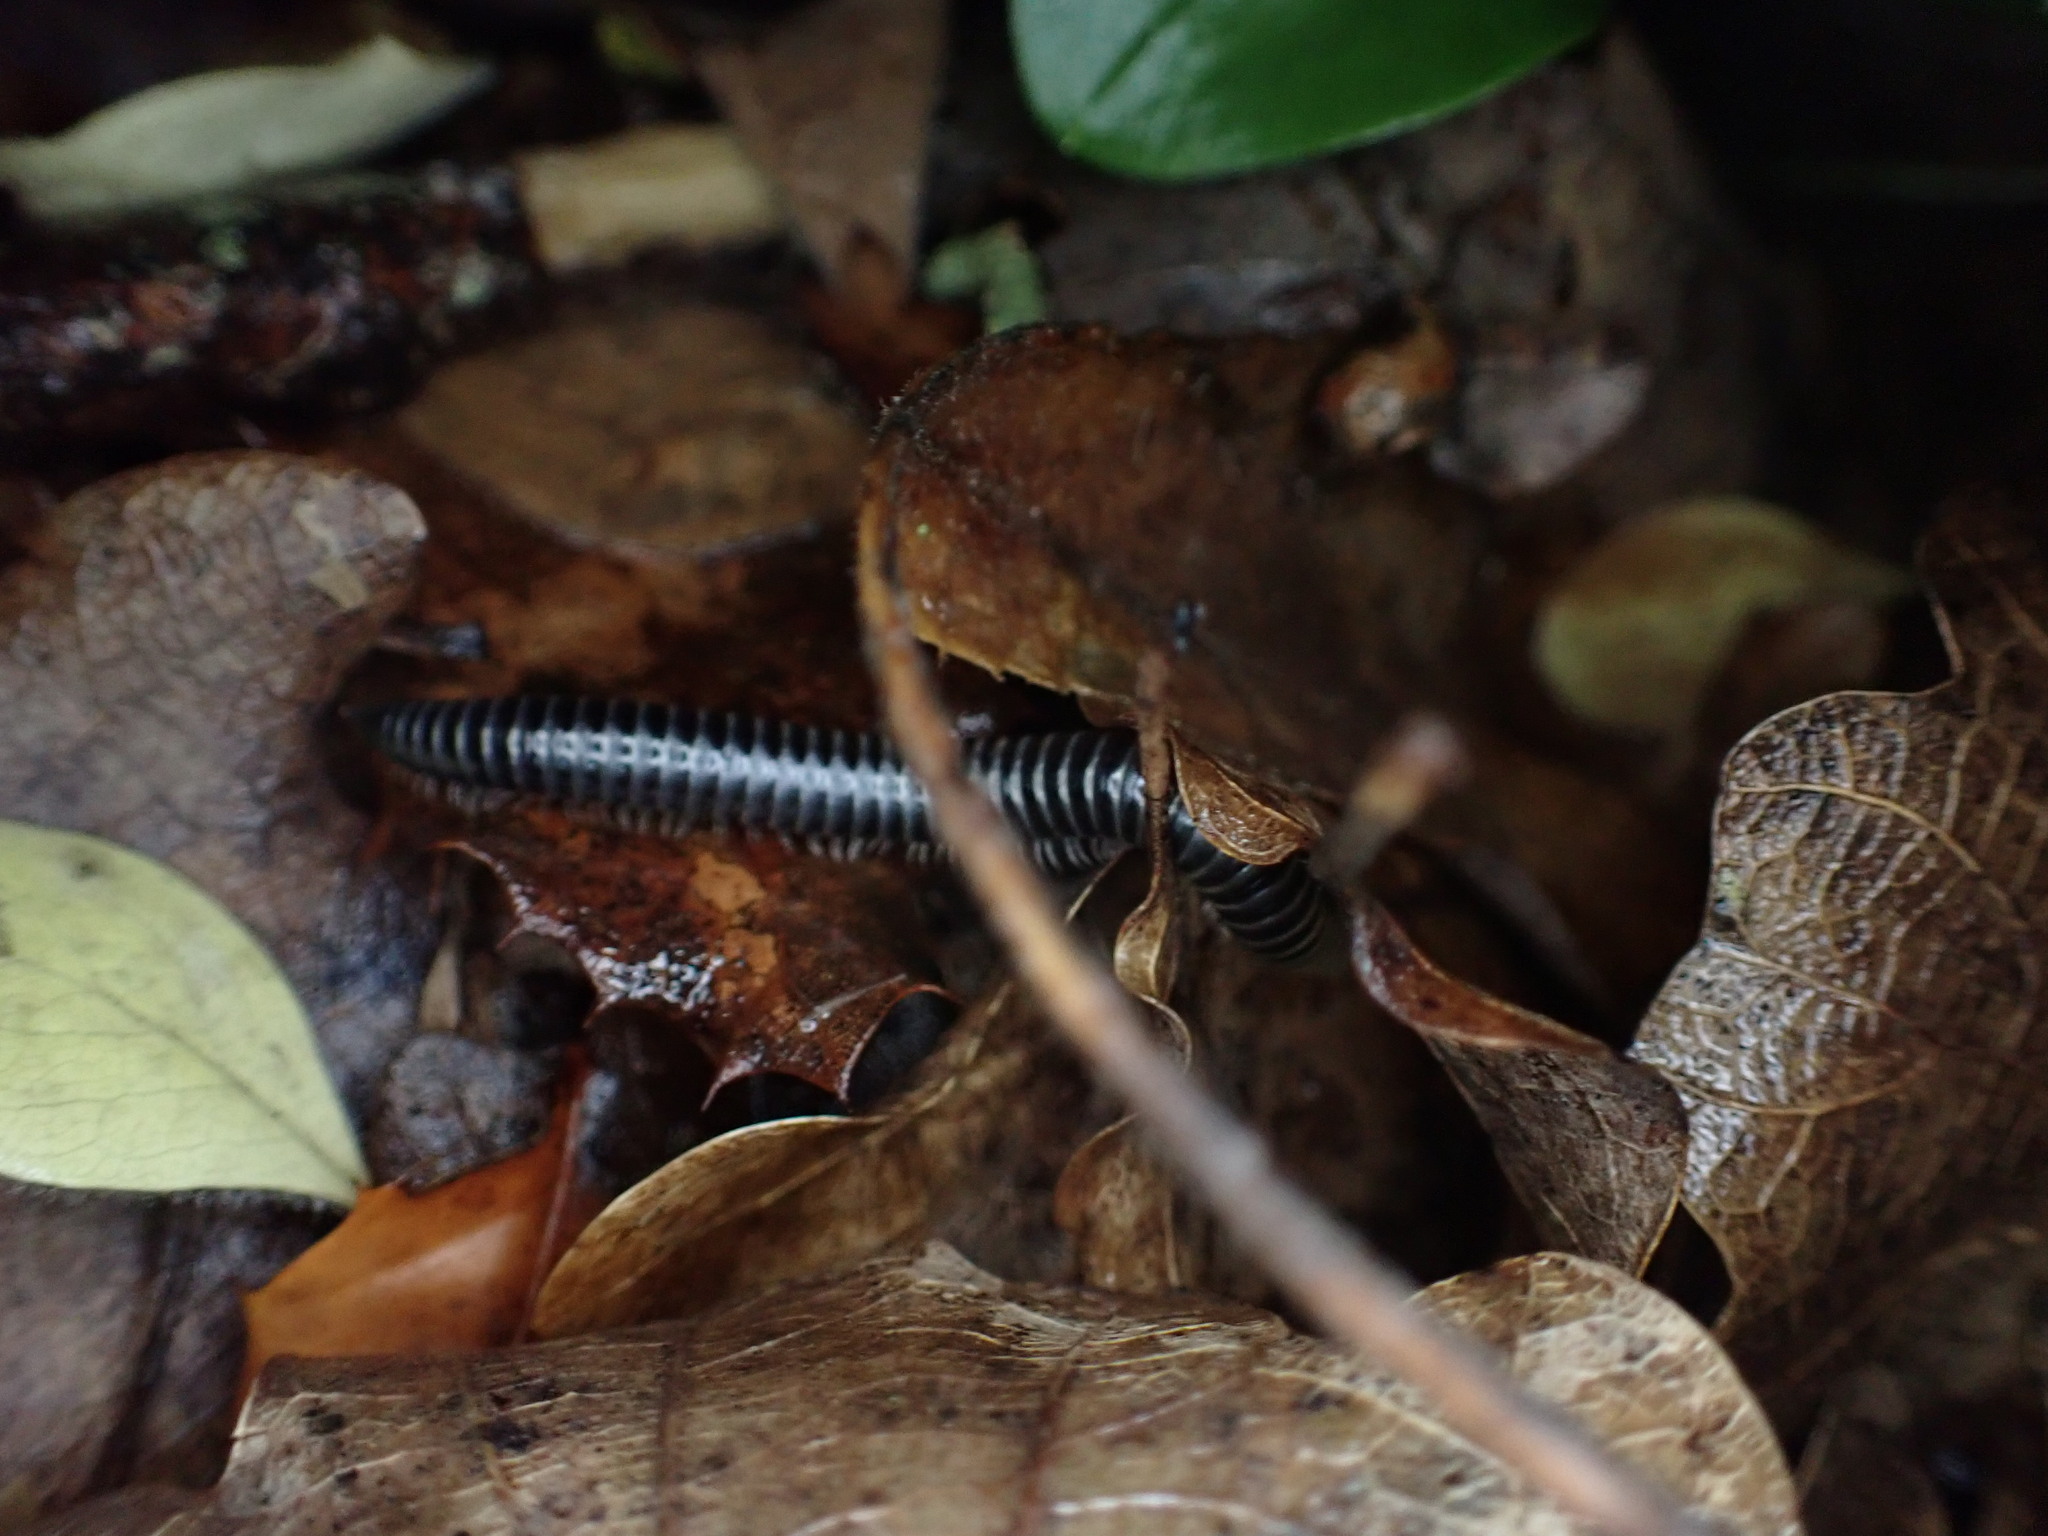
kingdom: Animalia
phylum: Arthropoda
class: Diplopoda
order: Julida
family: Julidae
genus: Ommatoiulus
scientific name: Ommatoiulus sabulosus
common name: Striped millipede
